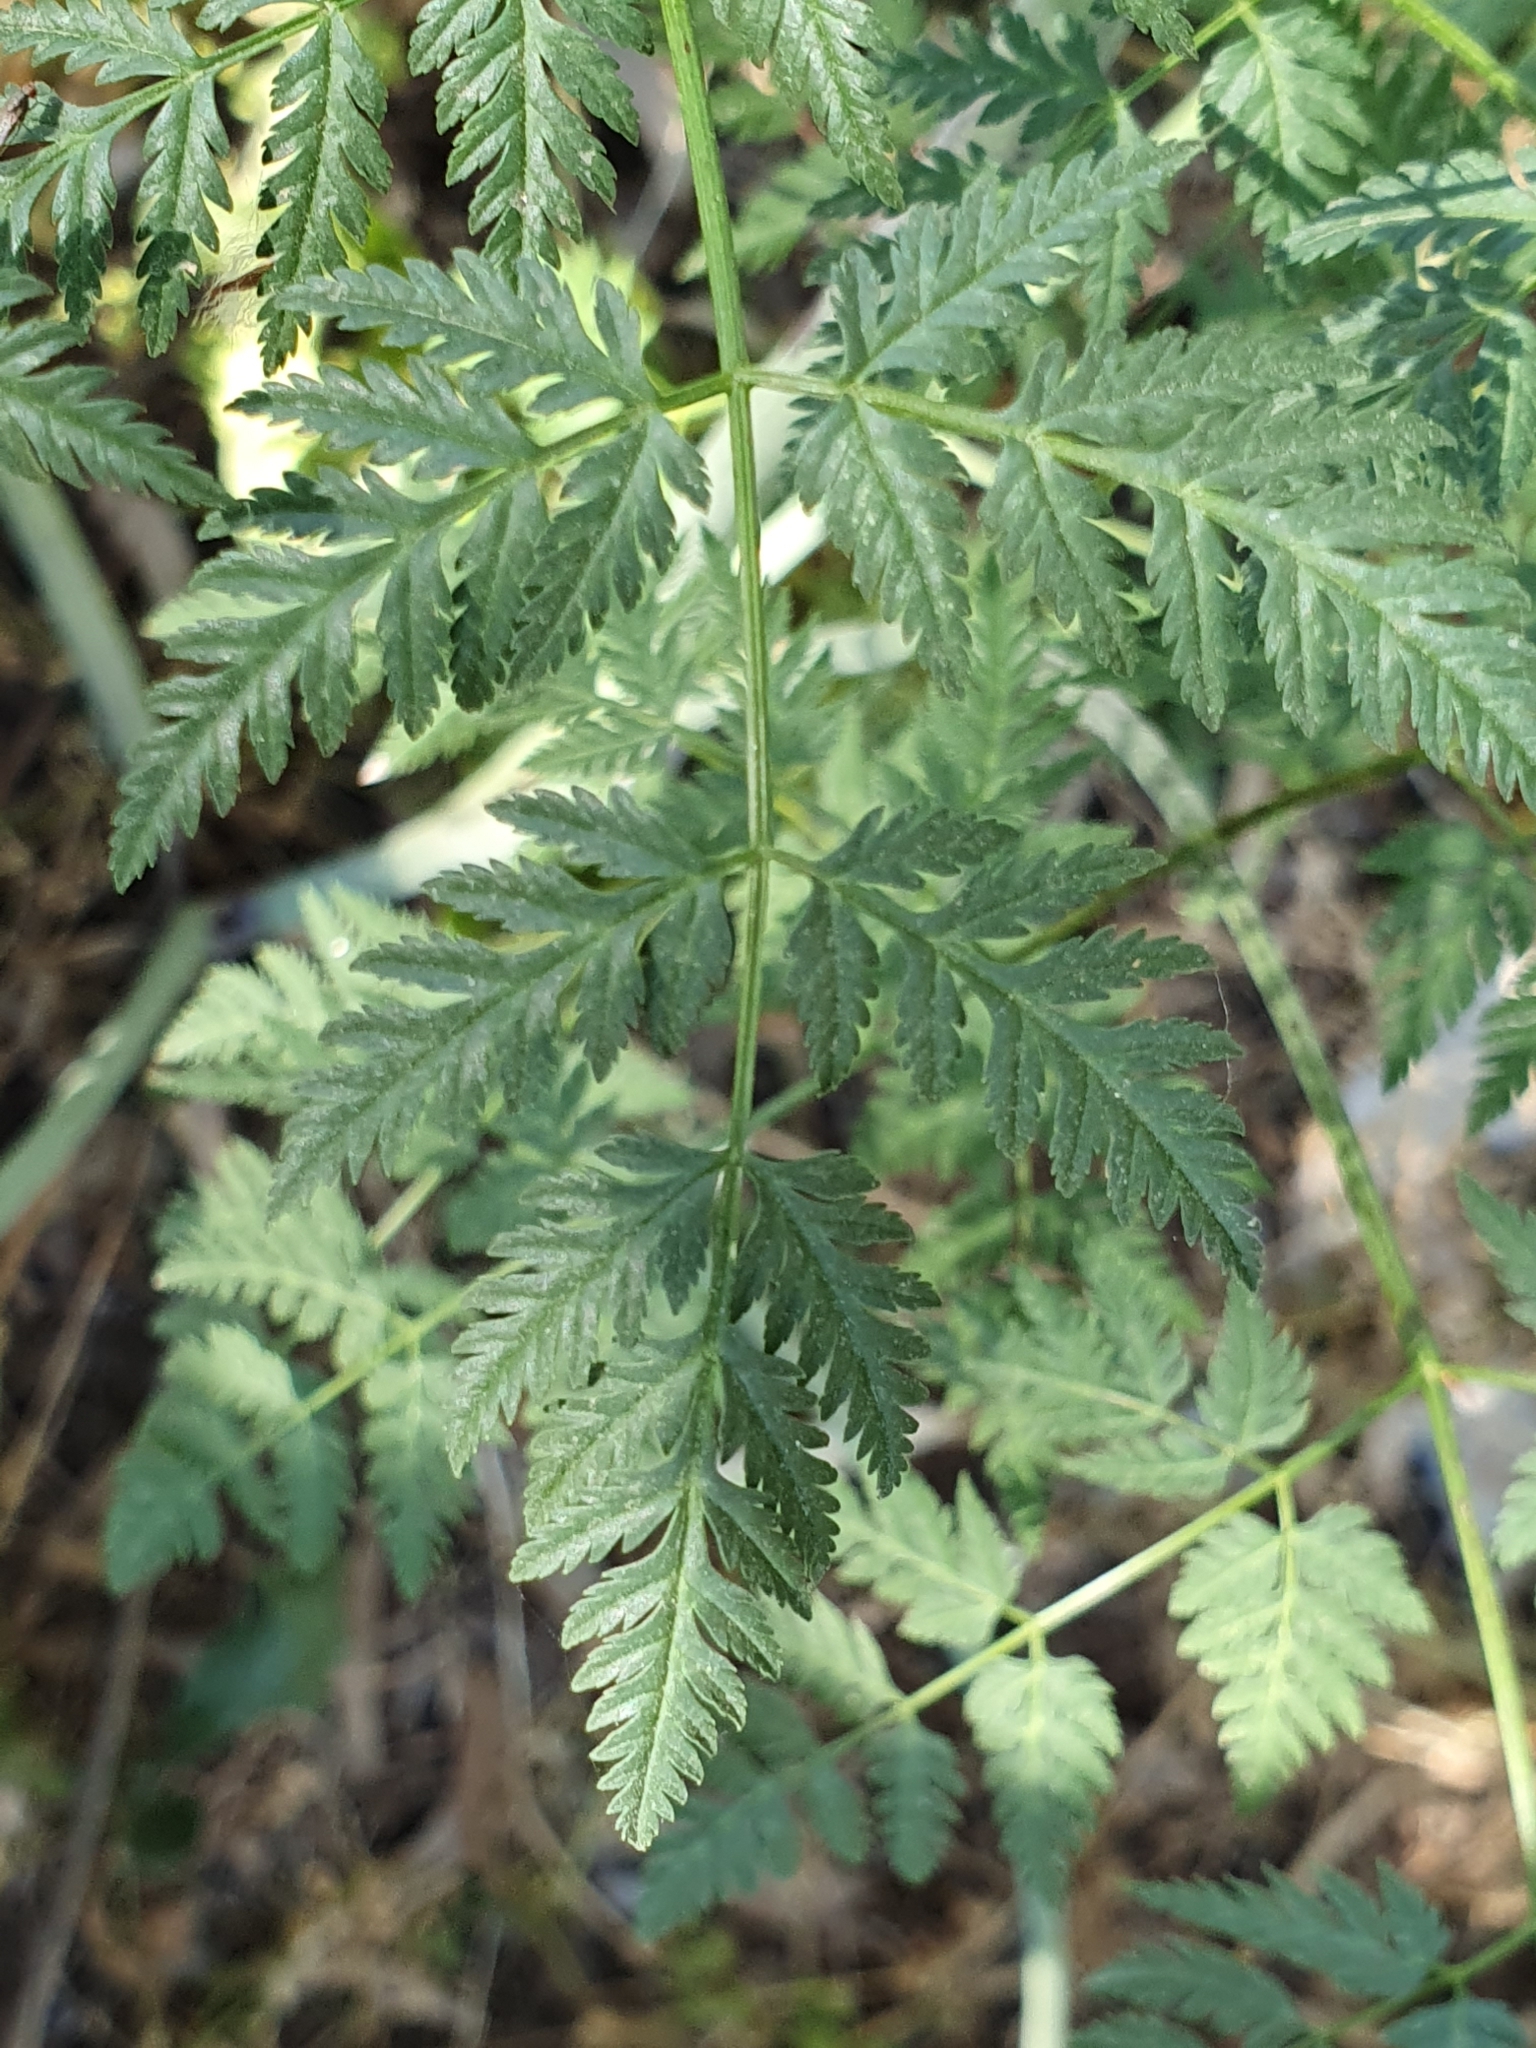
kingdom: Plantae
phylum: Tracheophyta
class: Magnoliopsida
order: Apiales
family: Apiaceae
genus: Conium
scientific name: Conium maculatum
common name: Hemlock
